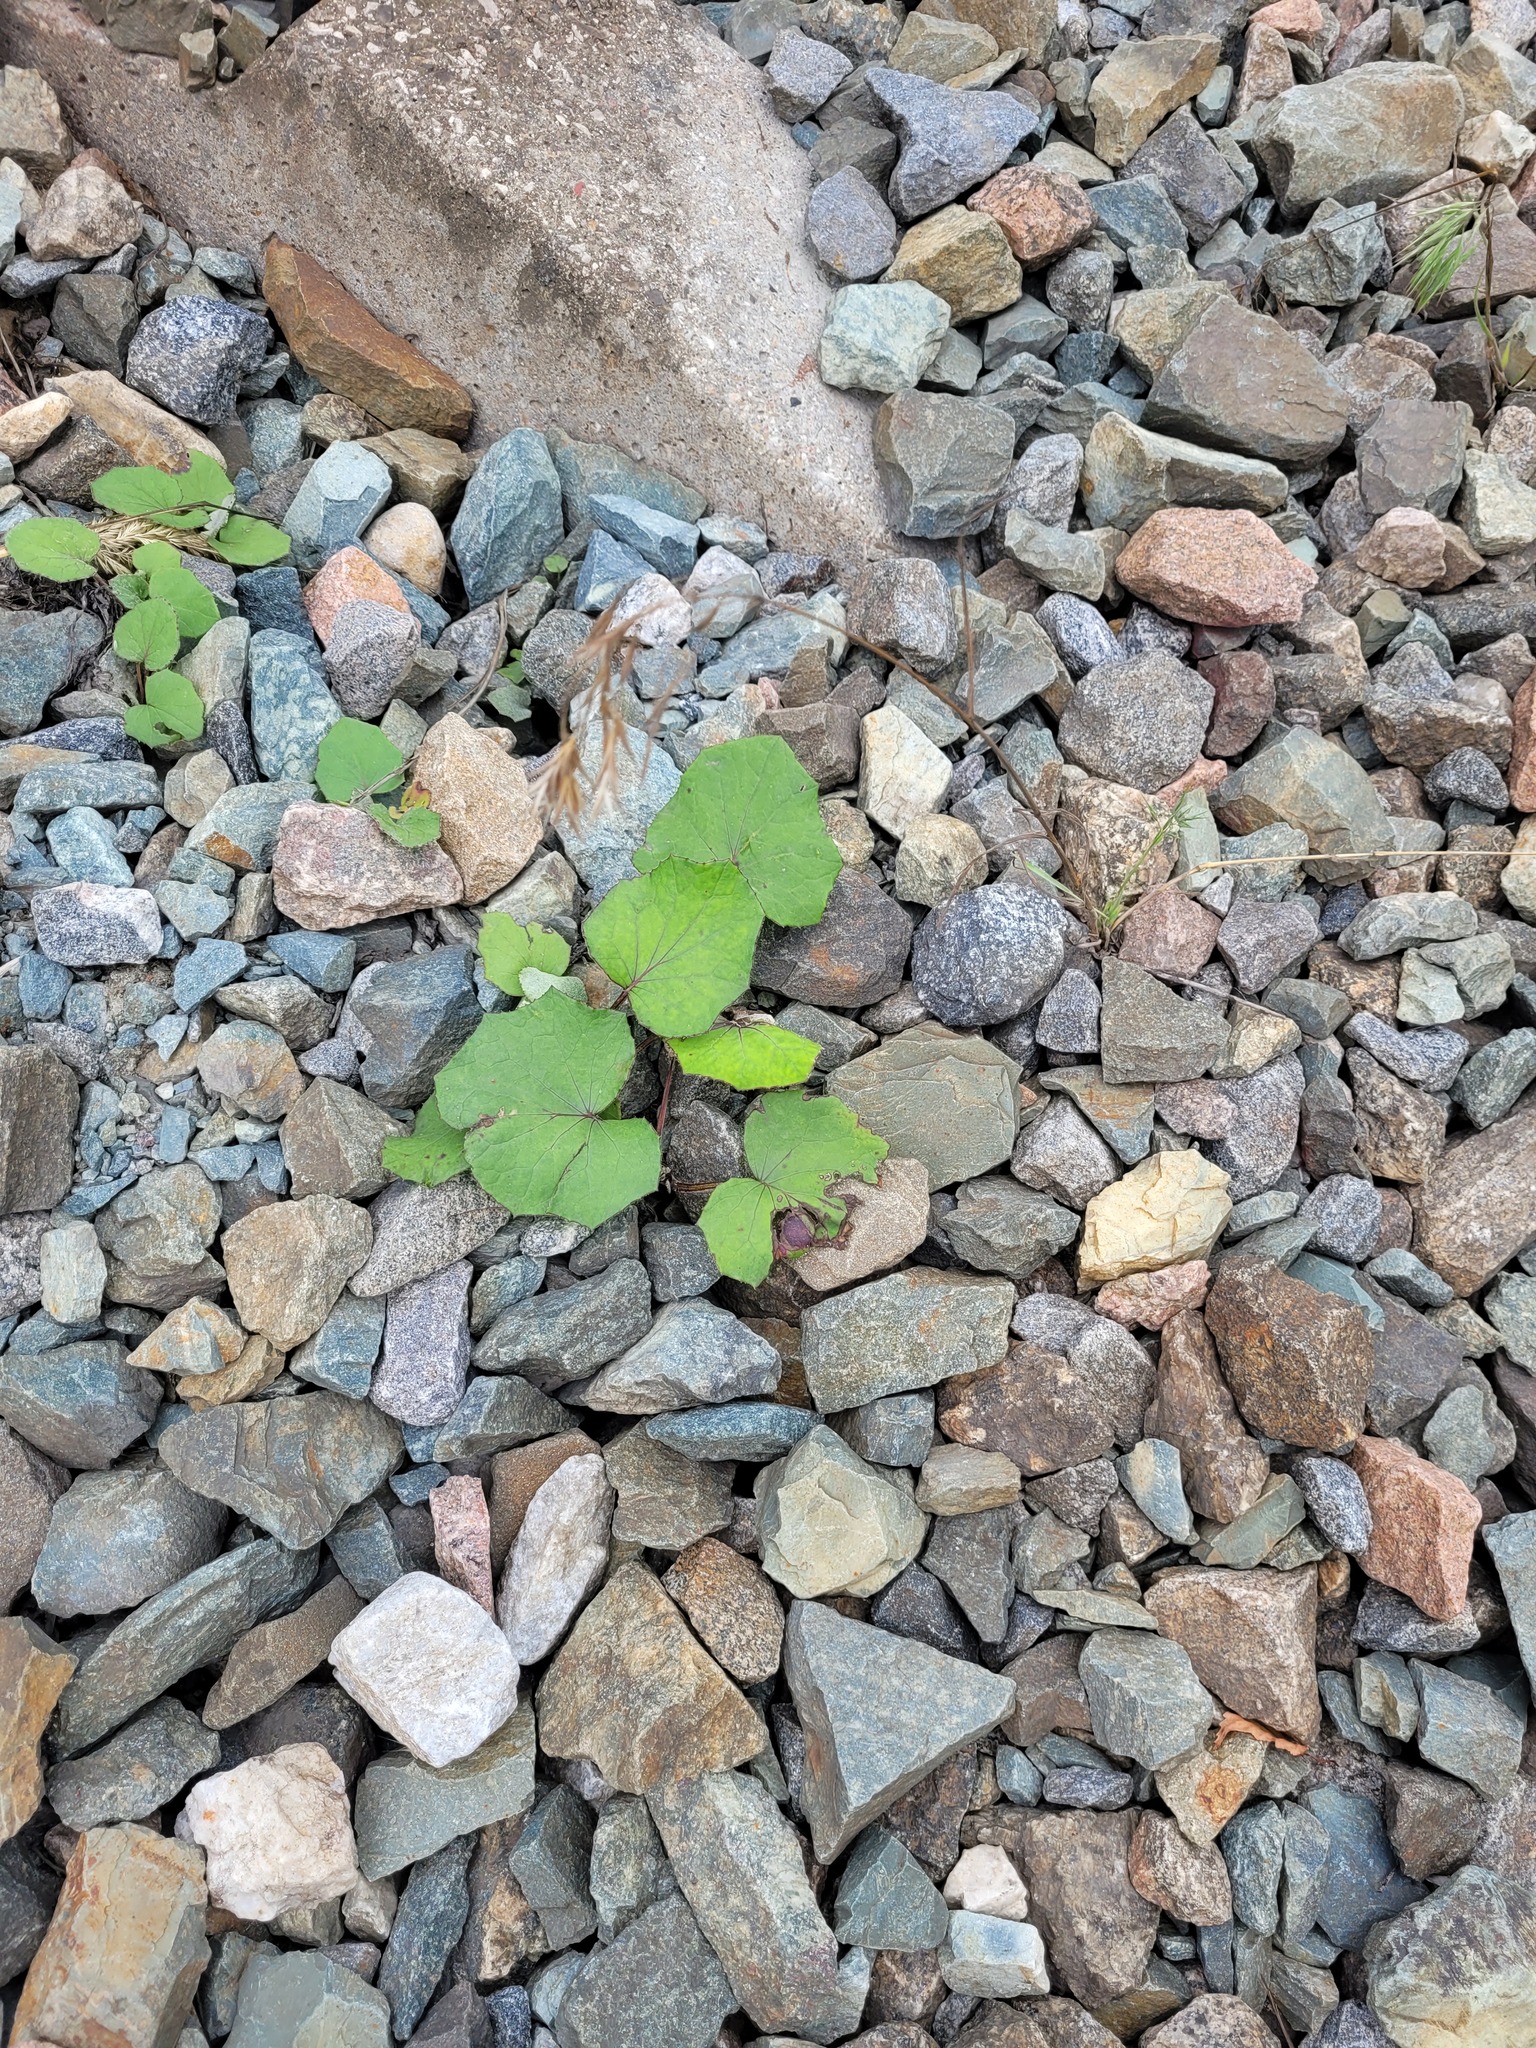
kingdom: Plantae
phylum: Tracheophyta
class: Magnoliopsida
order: Asterales
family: Asteraceae
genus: Tussilago
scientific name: Tussilago farfara
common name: Coltsfoot
